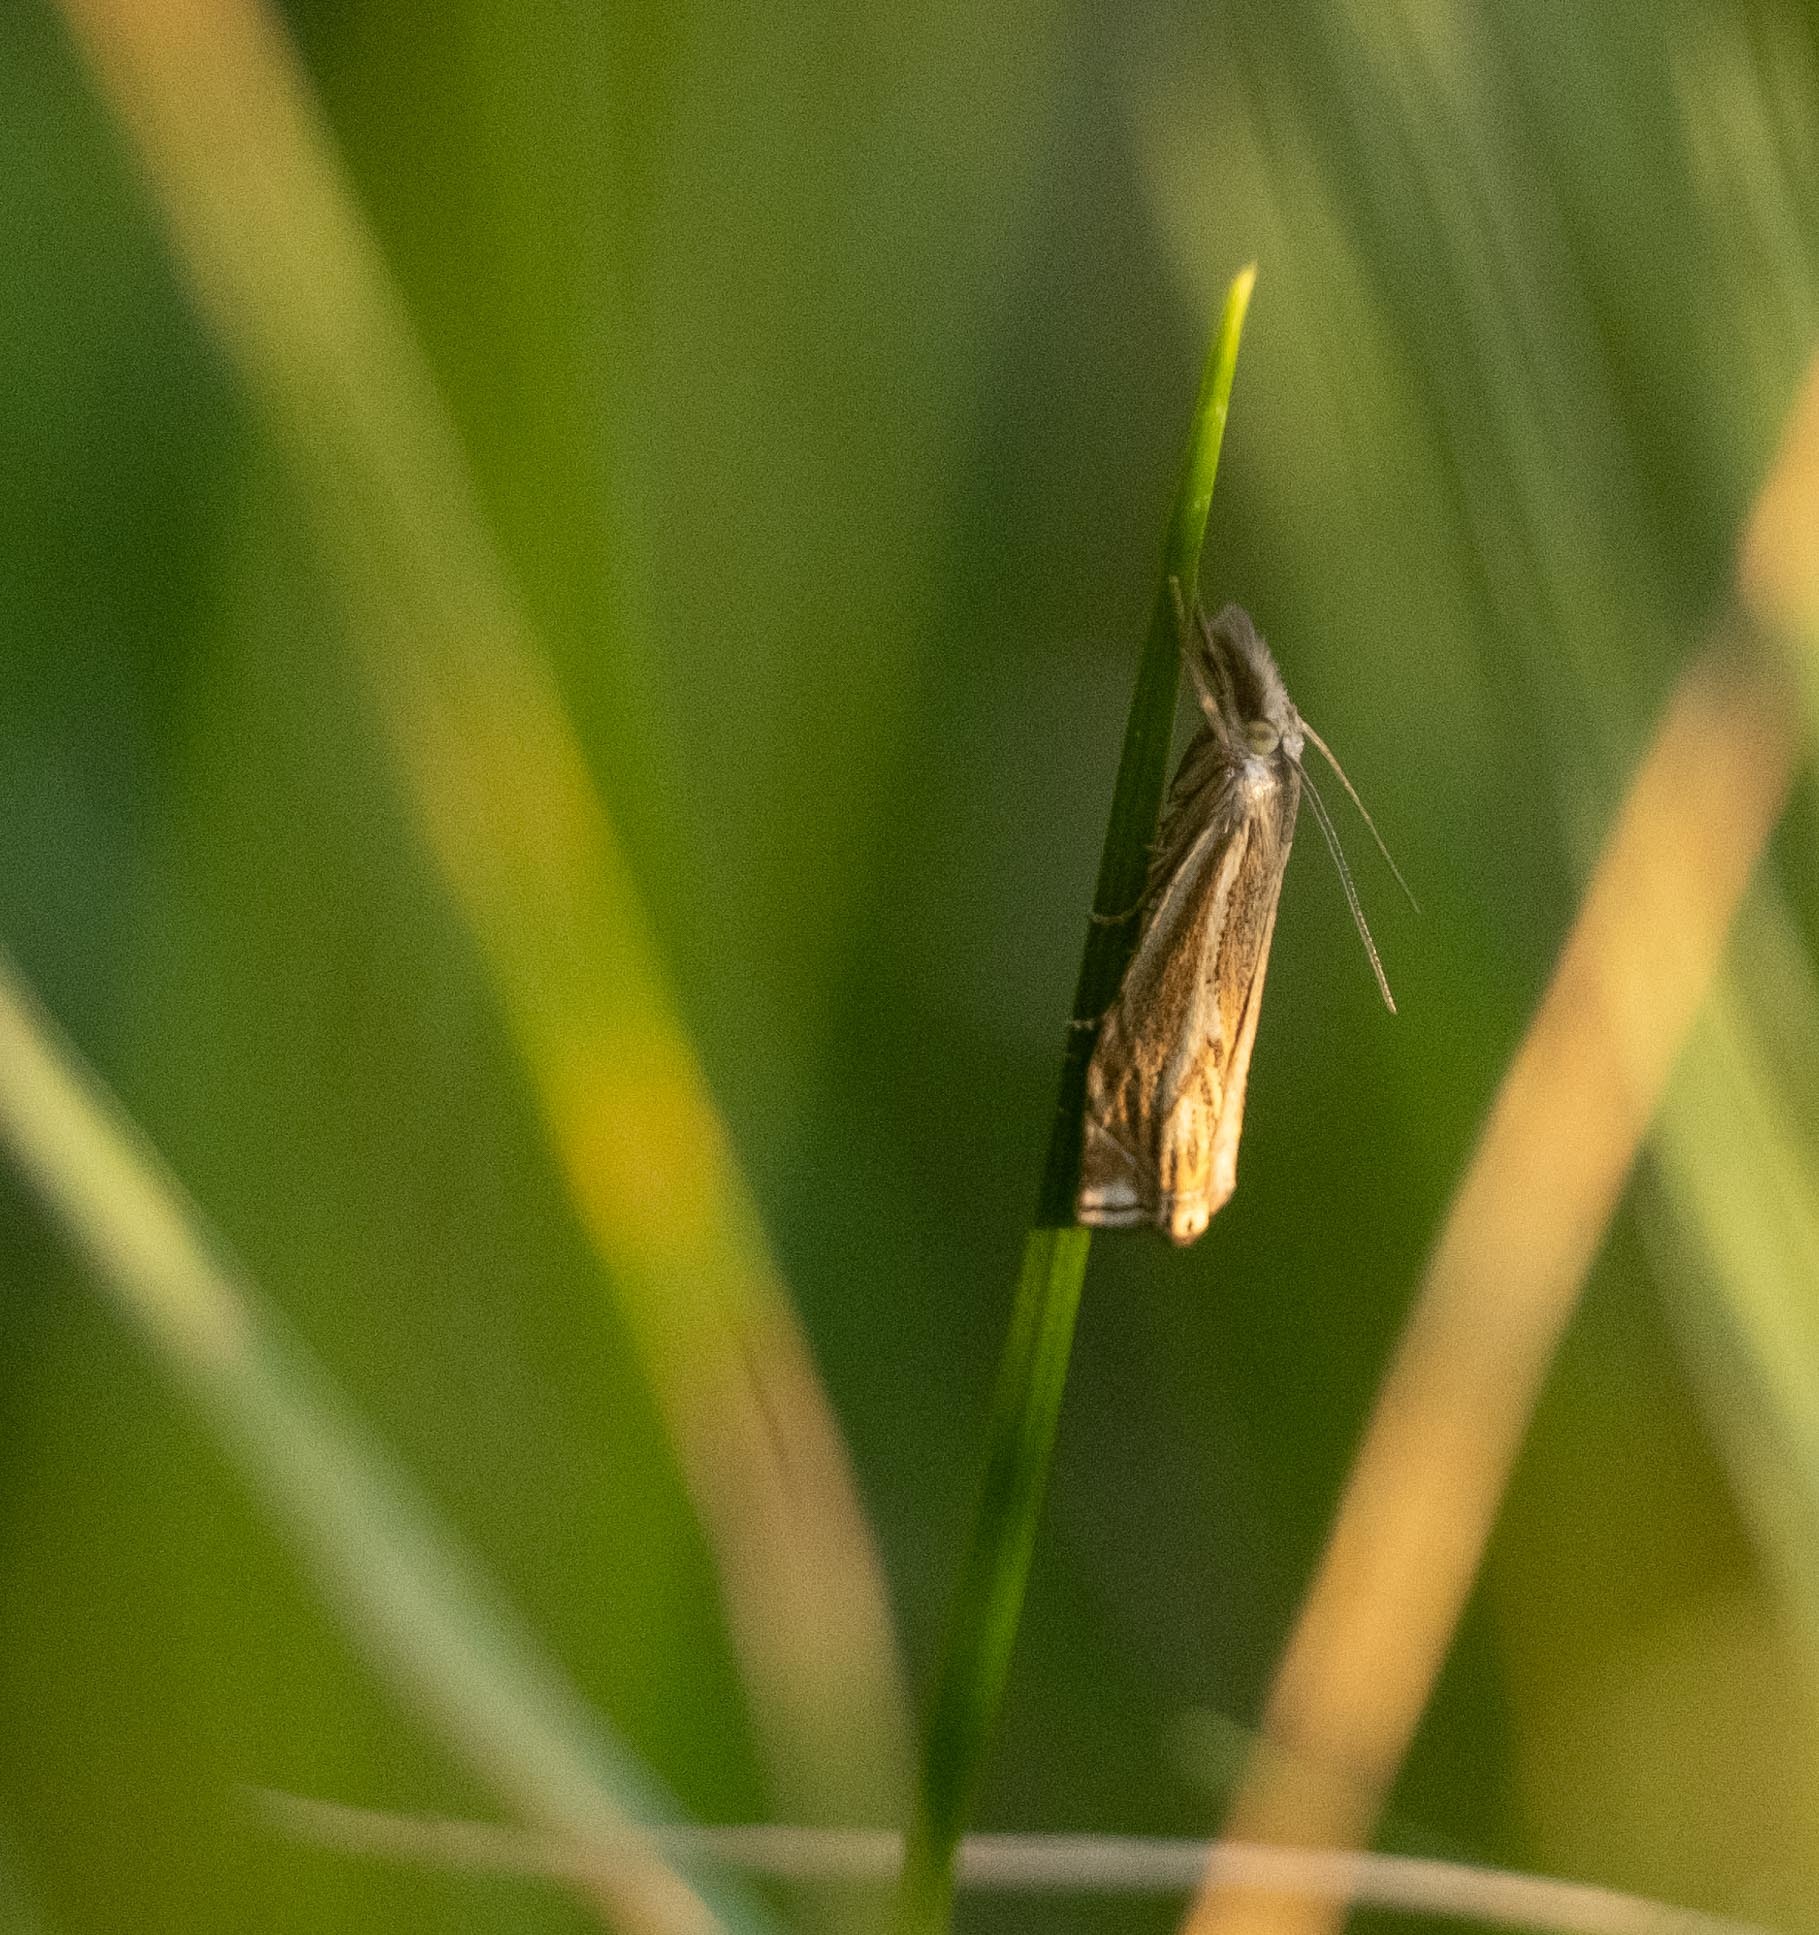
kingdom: Animalia
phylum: Arthropoda
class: Insecta
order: Lepidoptera
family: Crambidae
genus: Crambus
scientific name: Crambus nemorella
